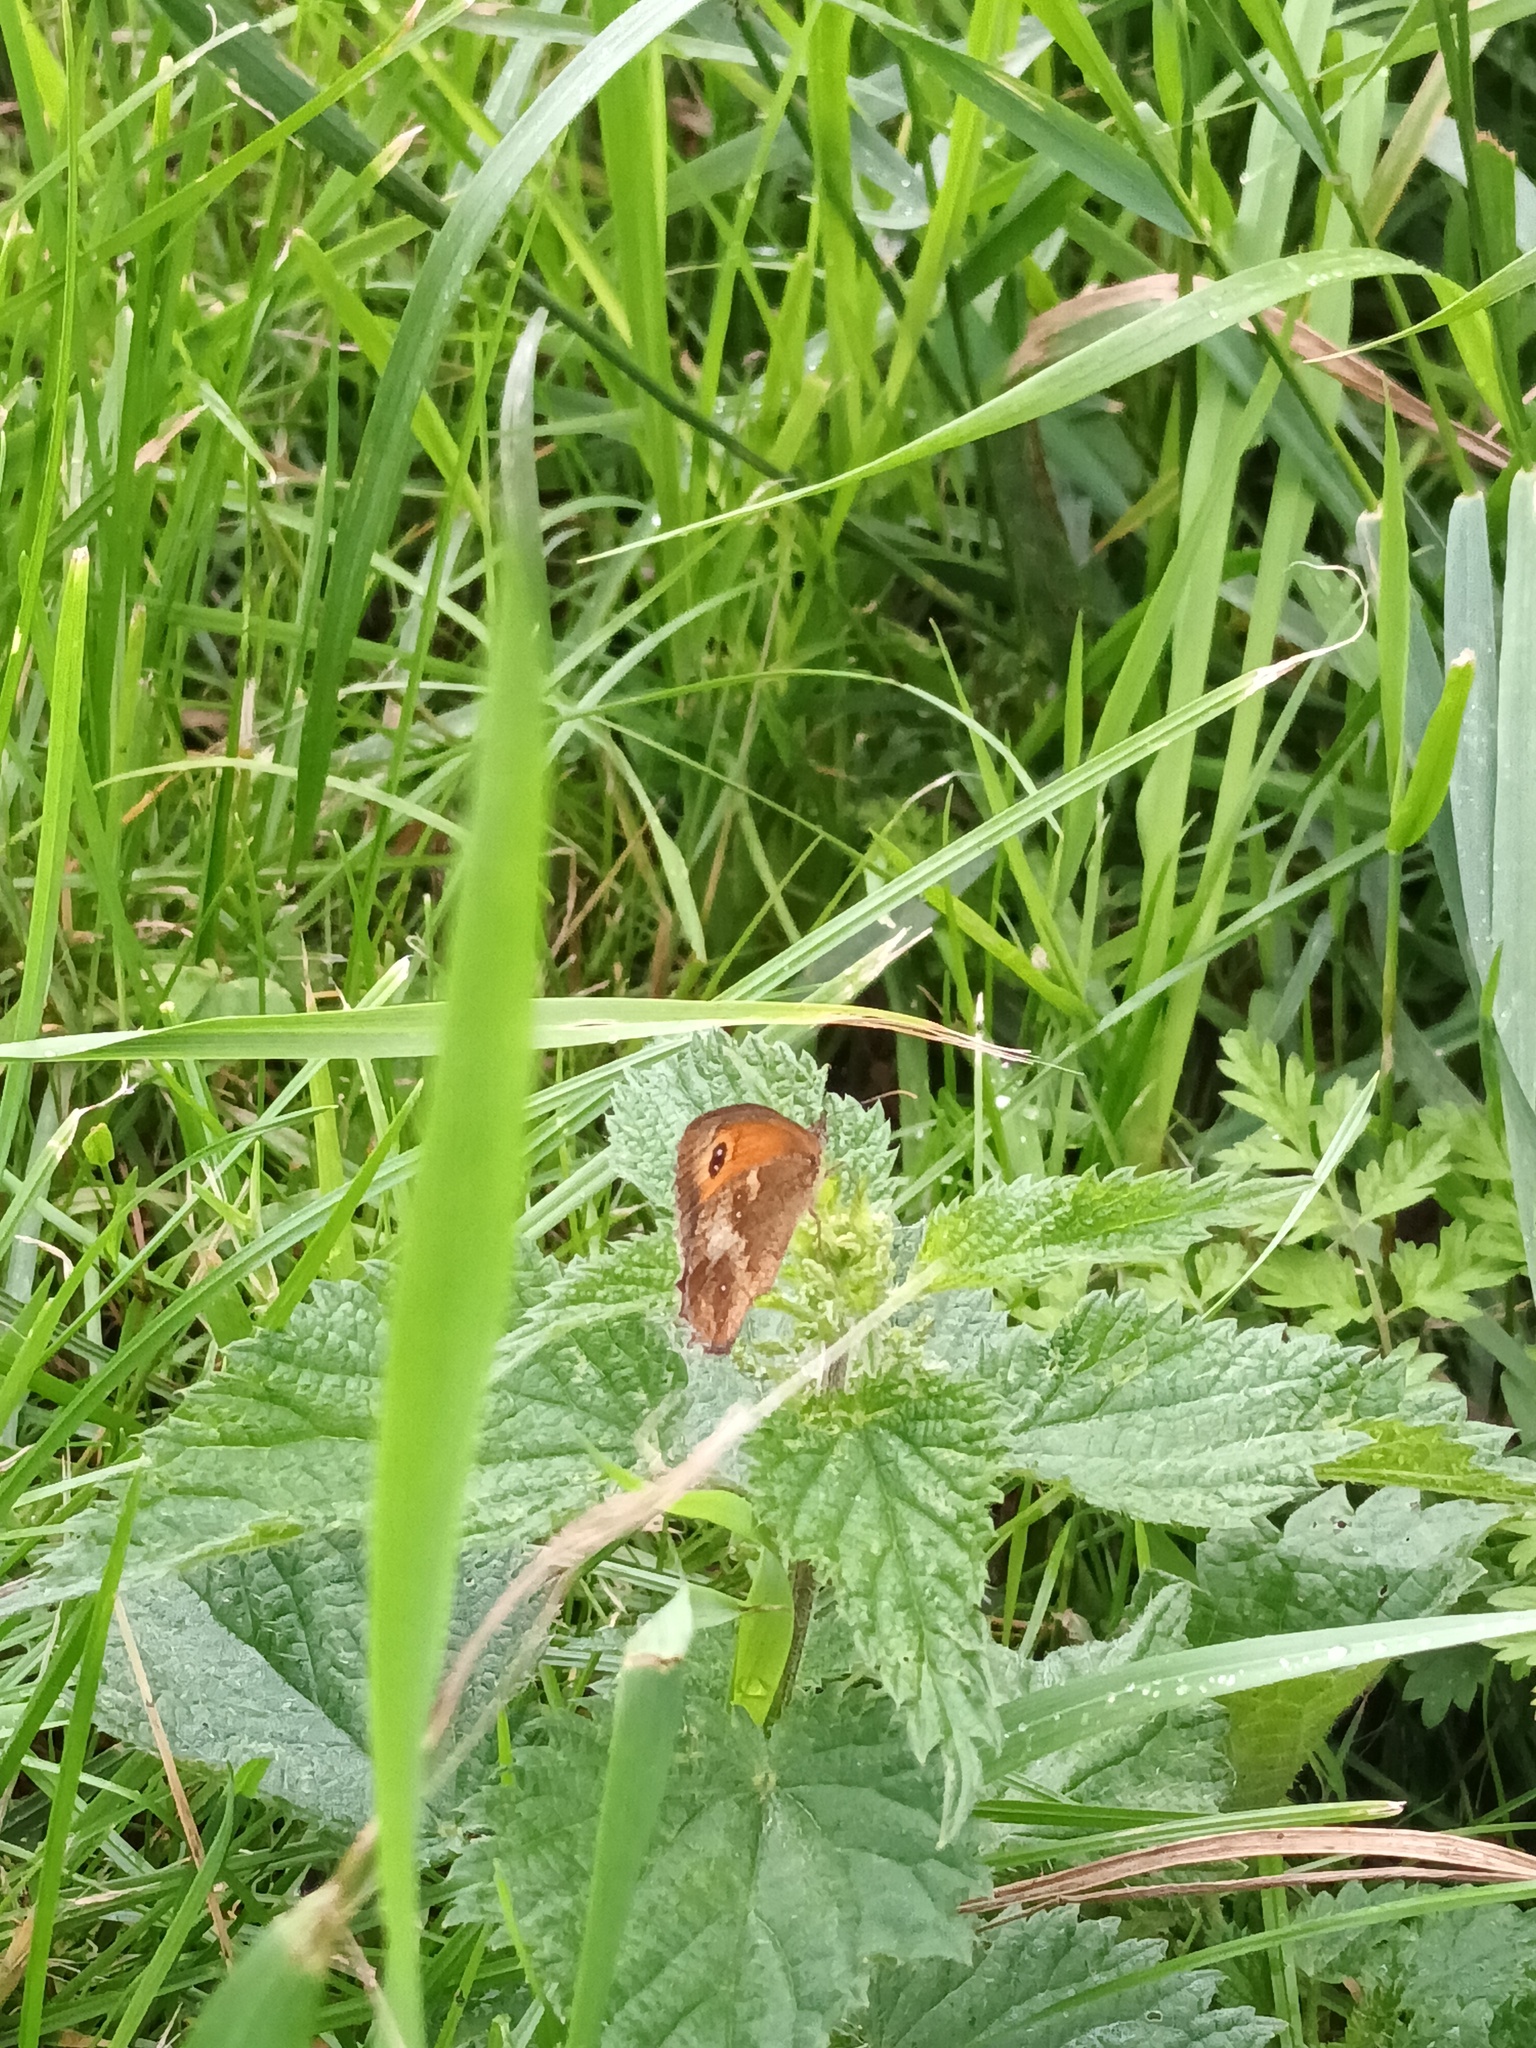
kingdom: Animalia
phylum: Arthropoda
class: Insecta
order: Lepidoptera
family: Nymphalidae
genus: Pyronia
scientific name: Pyronia tithonus
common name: Gatekeeper
